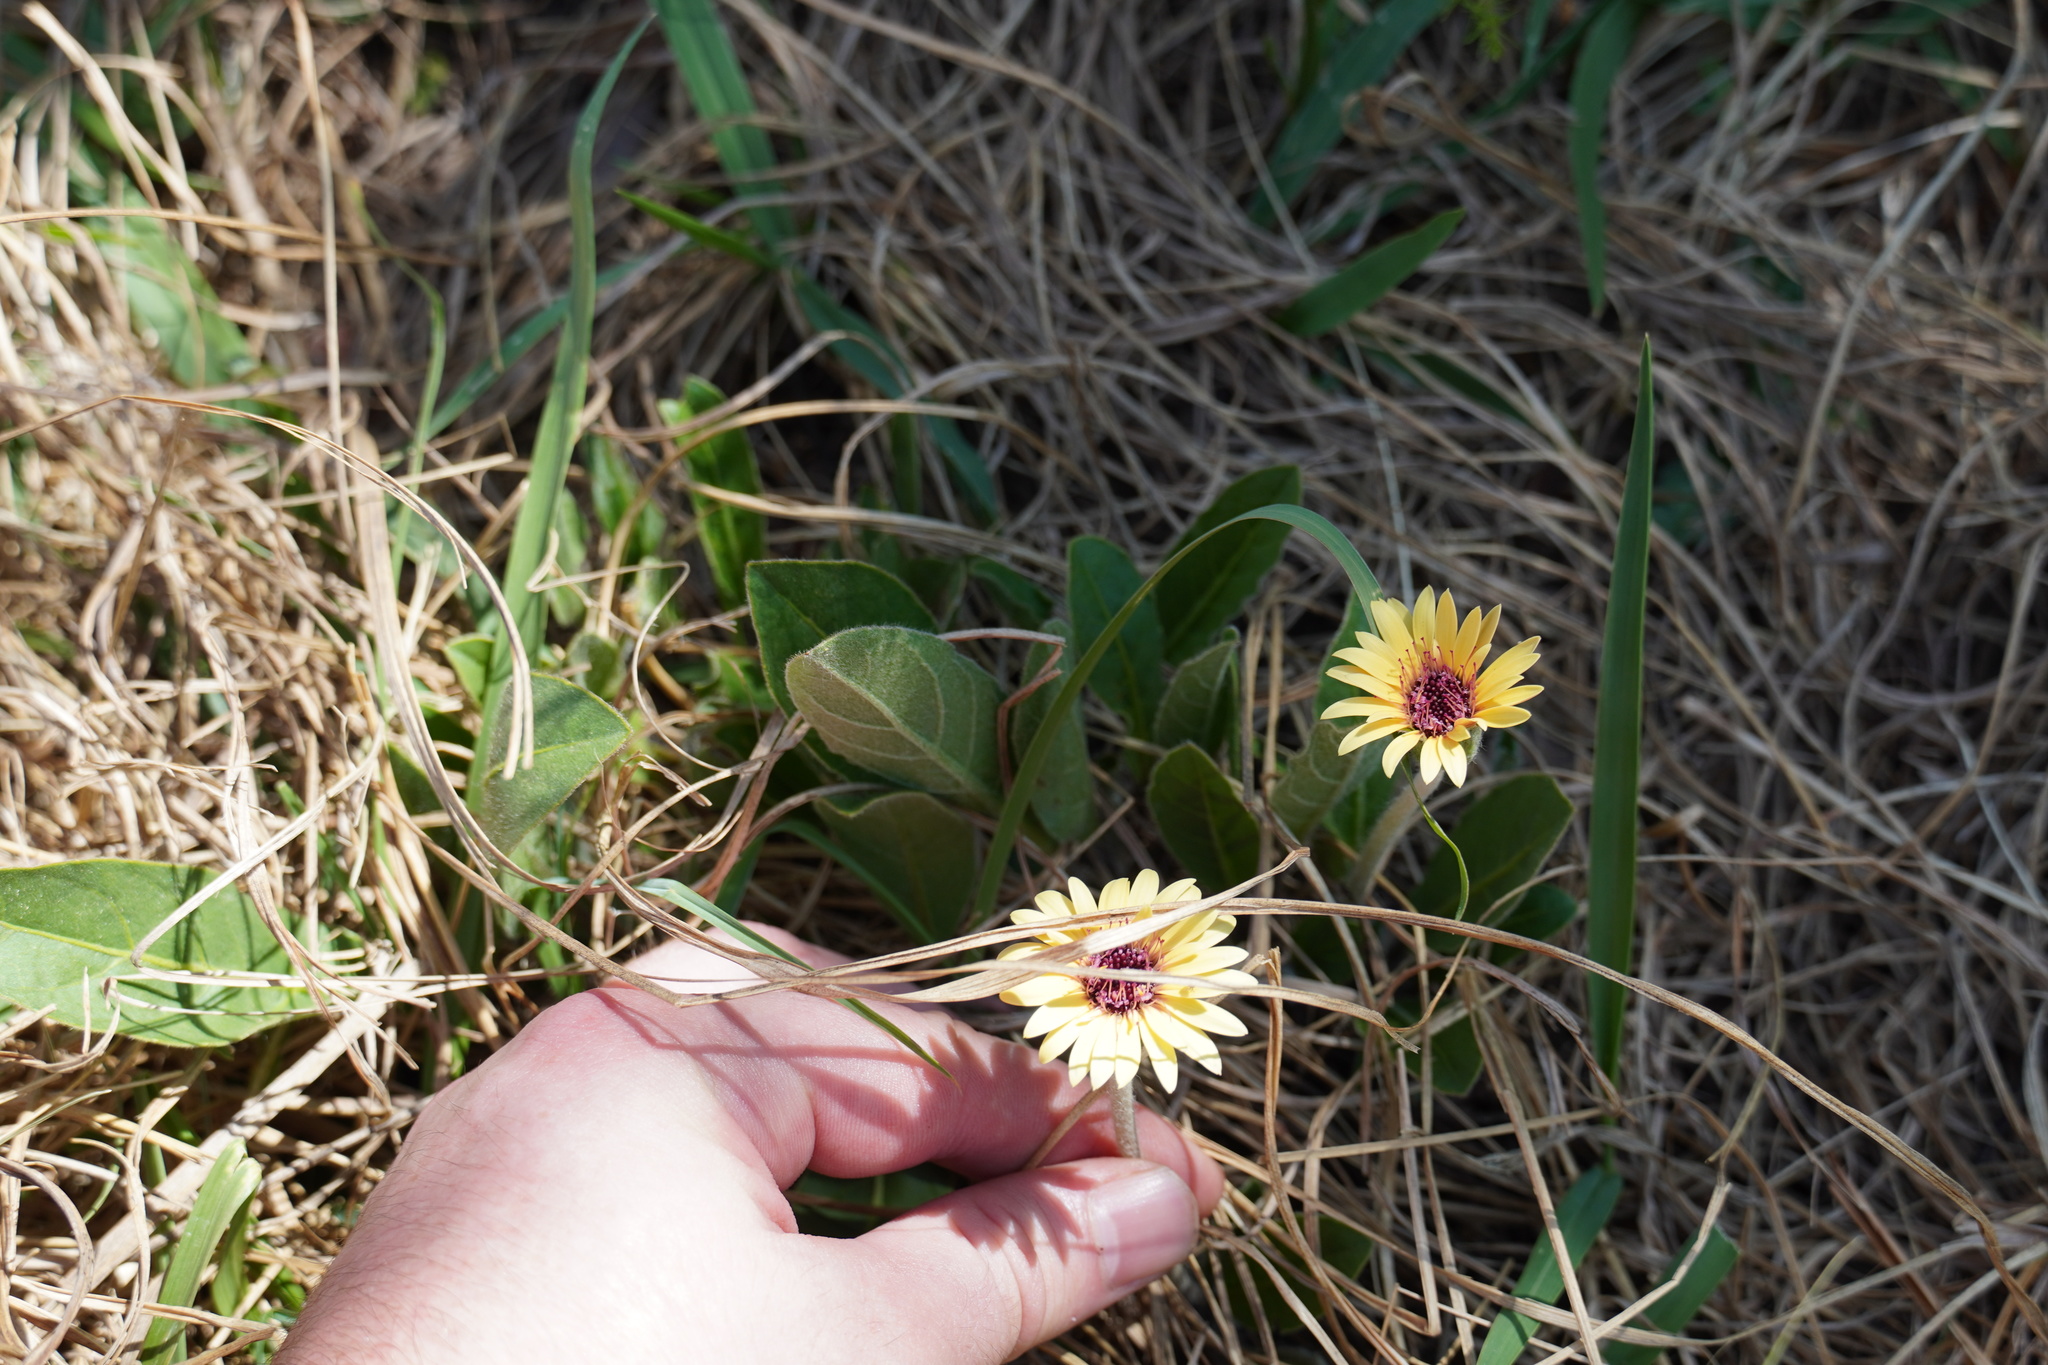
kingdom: Plantae
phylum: Tracheophyta
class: Magnoliopsida
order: Asterales
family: Asteraceae
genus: Gerbera
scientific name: Gerbera viridifolia
